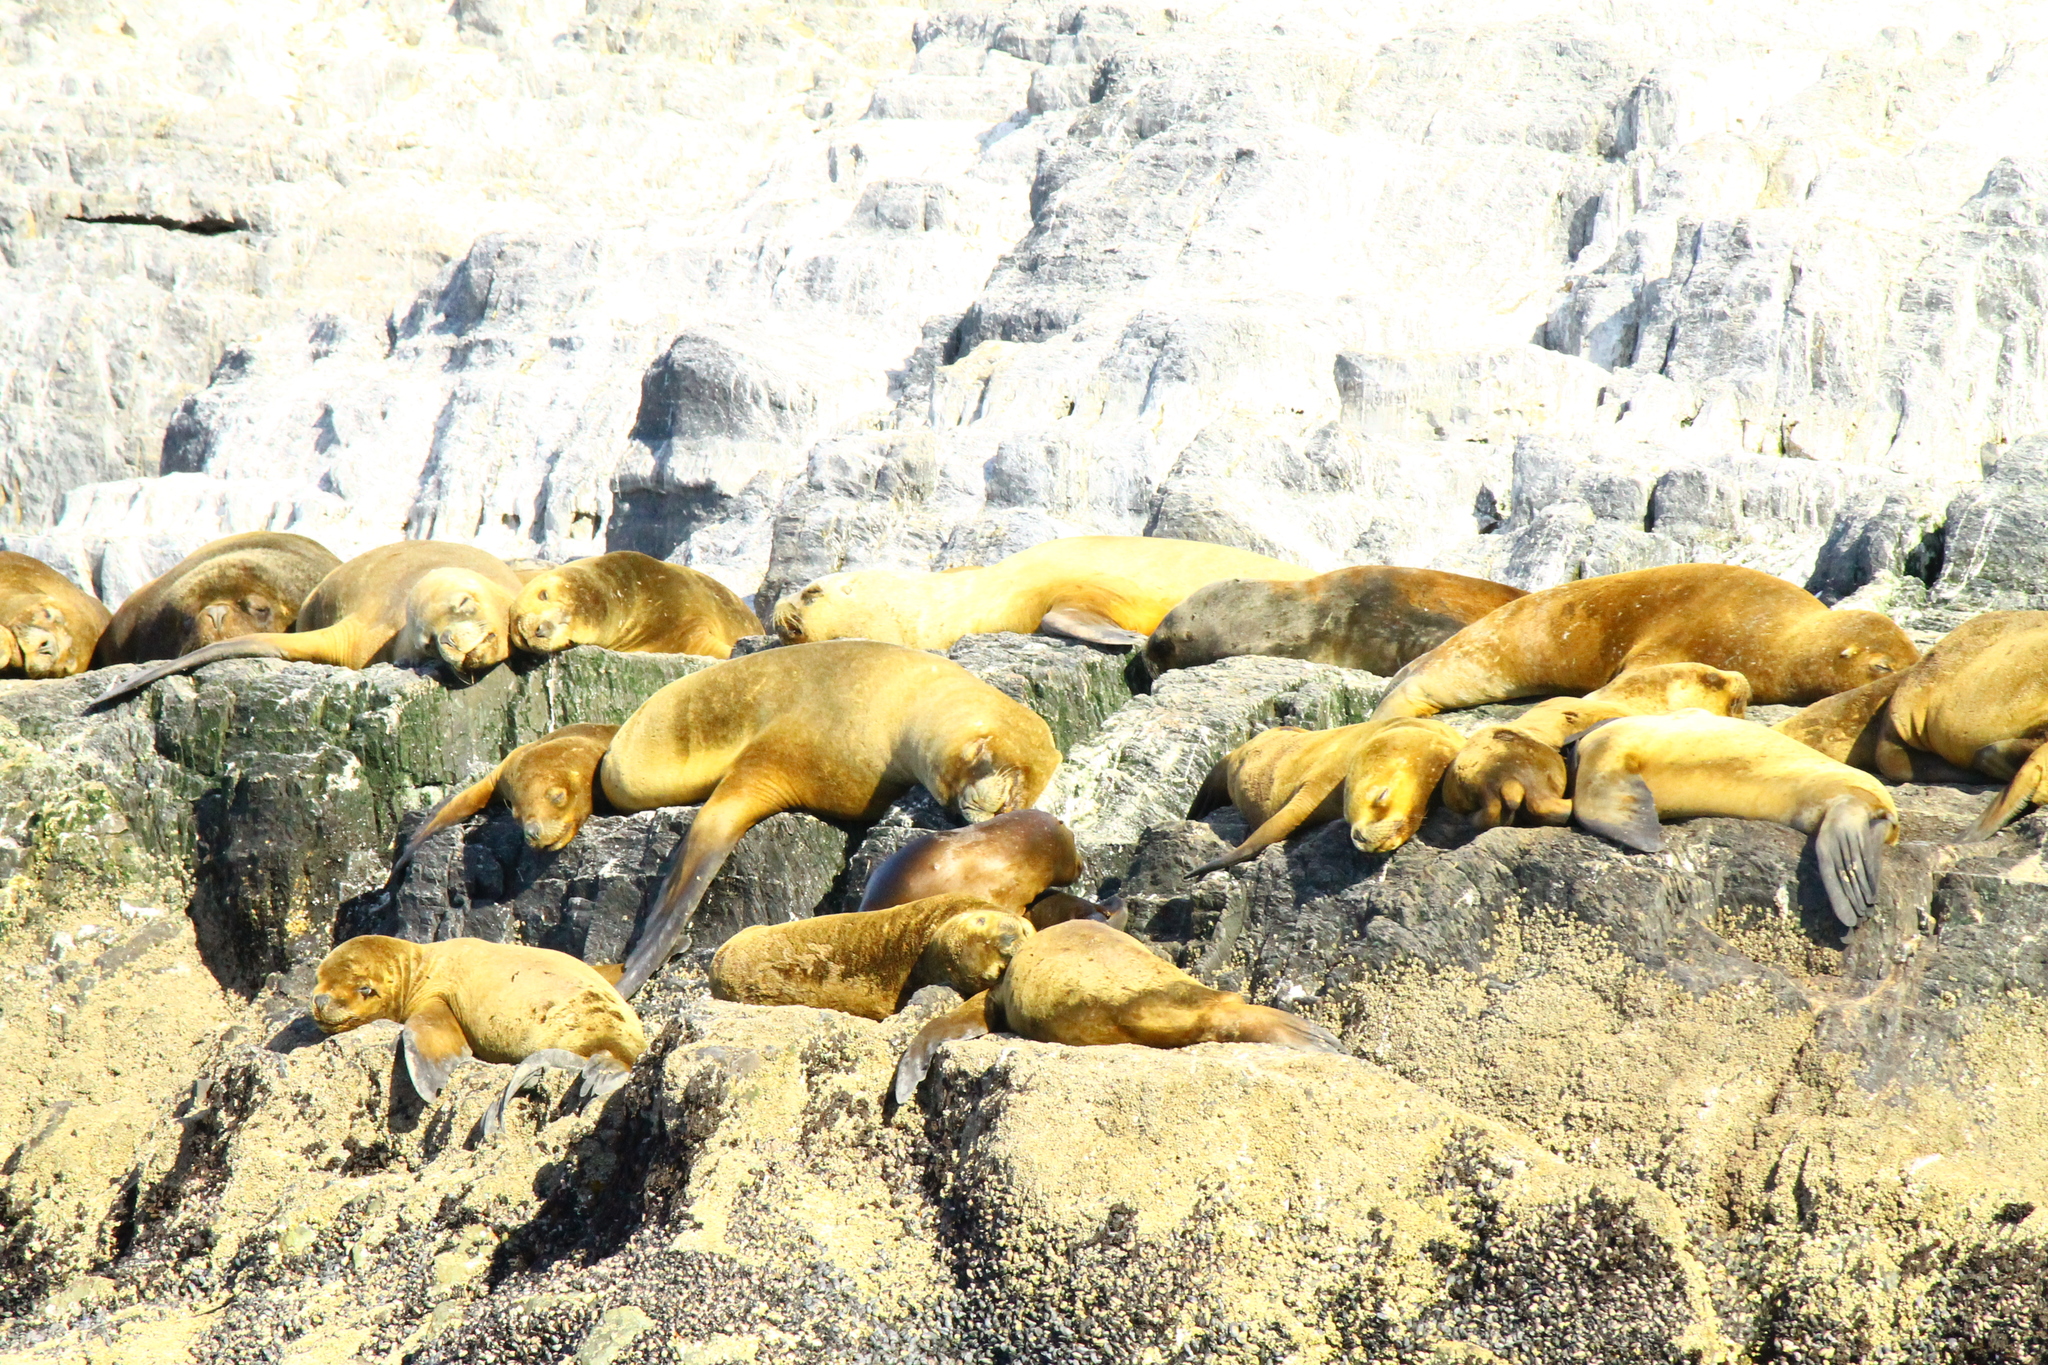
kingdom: Animalia
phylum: Chordata
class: Mammalia
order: Carnivora
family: Otariidae
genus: Otaria
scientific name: Otaria byronia
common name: South american sea lion
